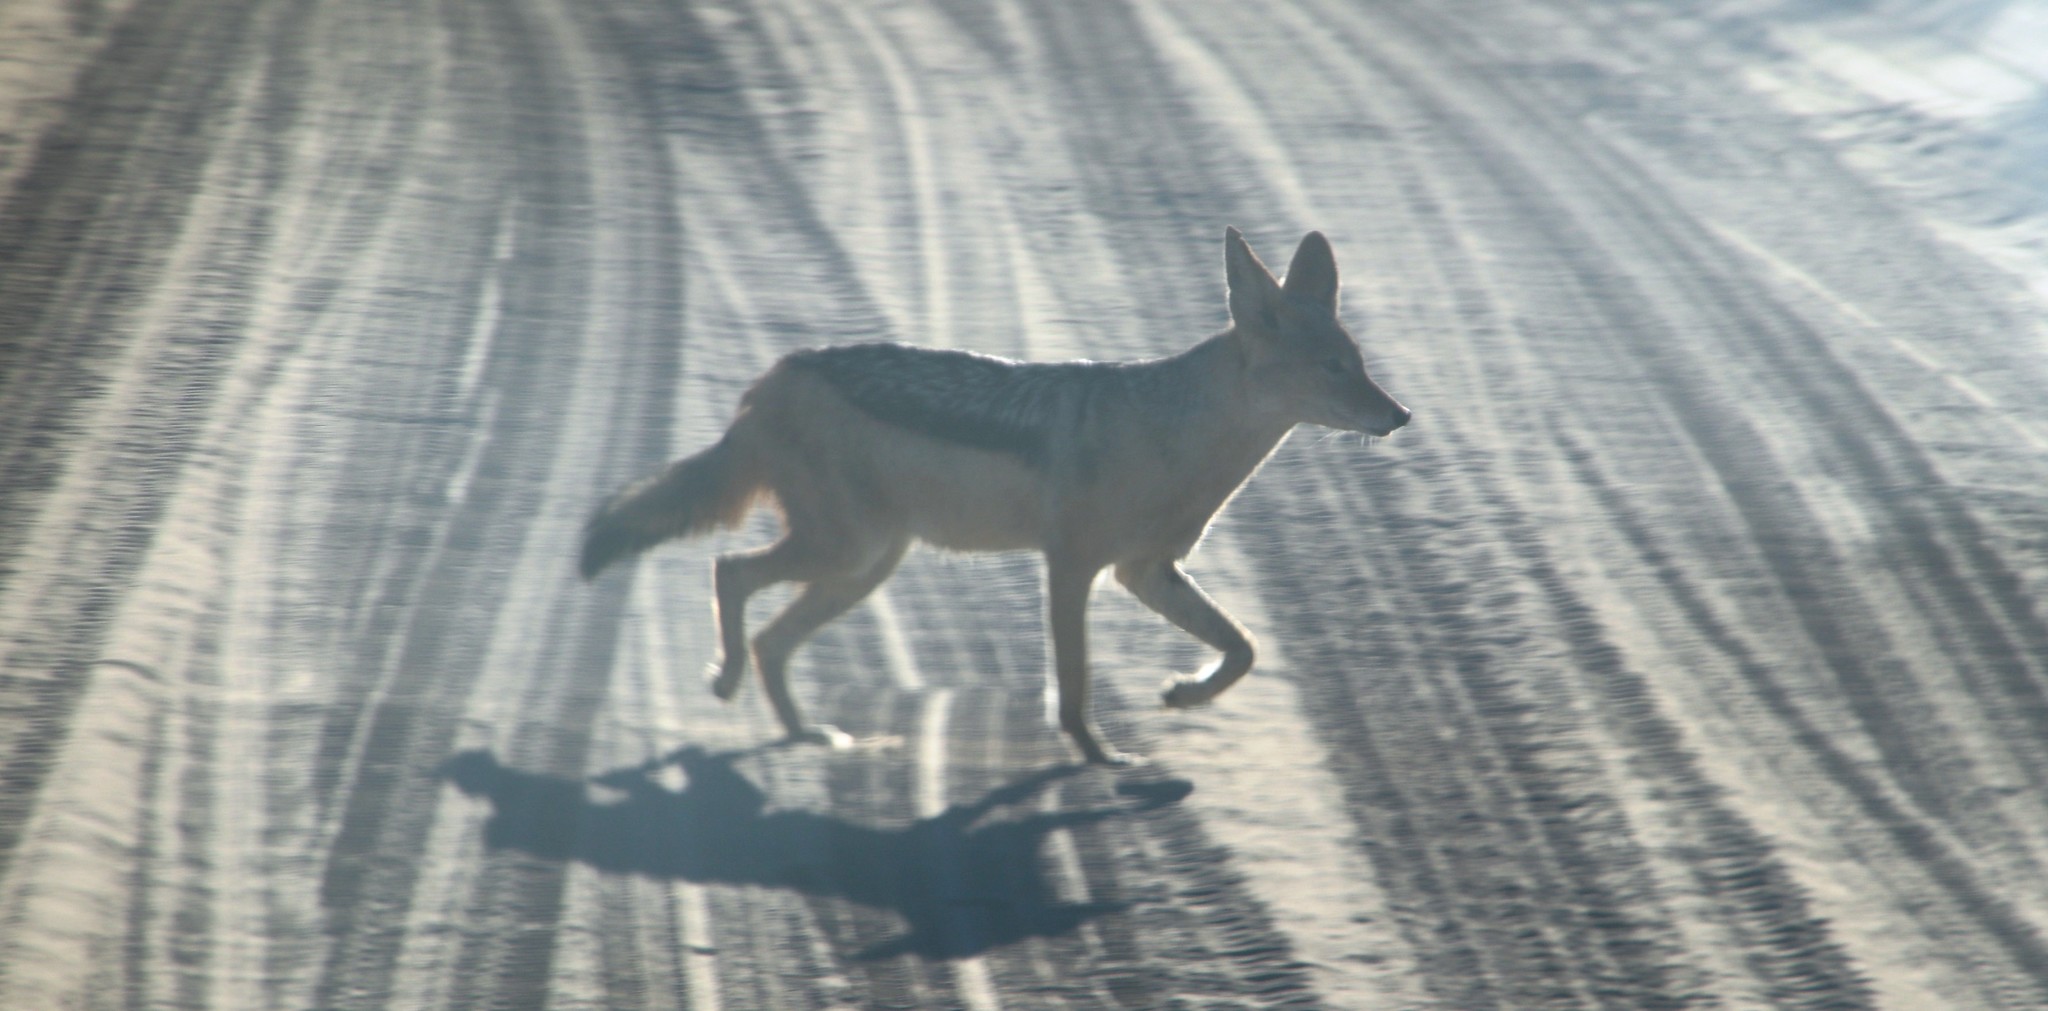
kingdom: Animalia
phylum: Chordata
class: Mammalia
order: Carnivora
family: Canidae
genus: Lupulella
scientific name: Lupulella
